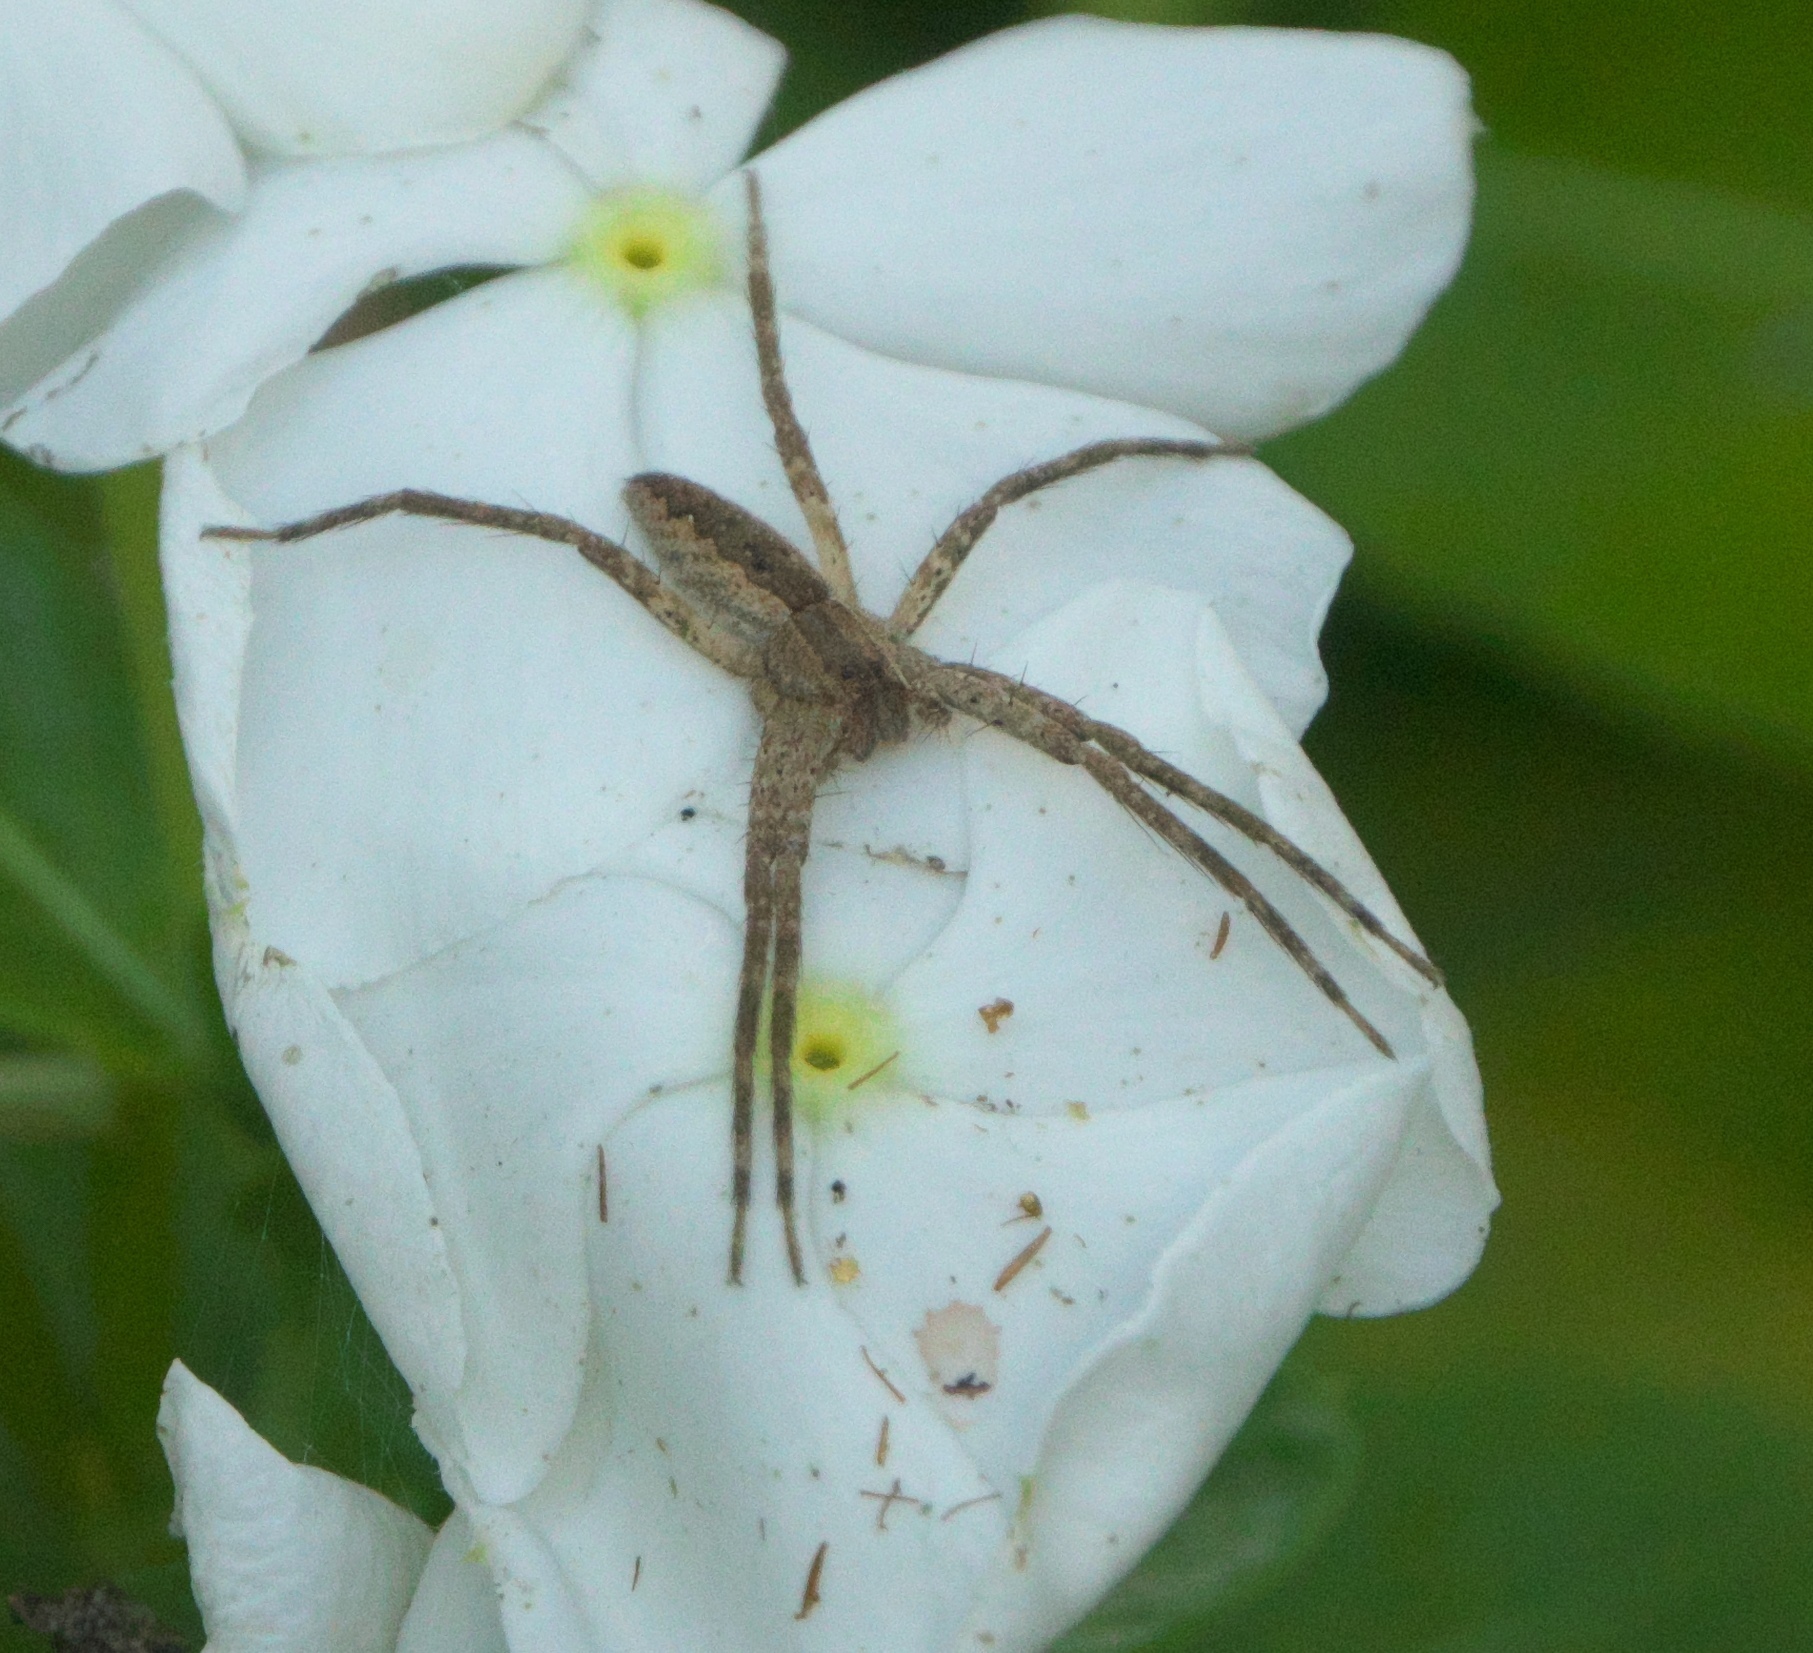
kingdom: Animalia
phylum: Arthropoda
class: Arachnida
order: Araneae
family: Pisauridae
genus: Pisaurina
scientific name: Pisaurina mira
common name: American nursery web spider
